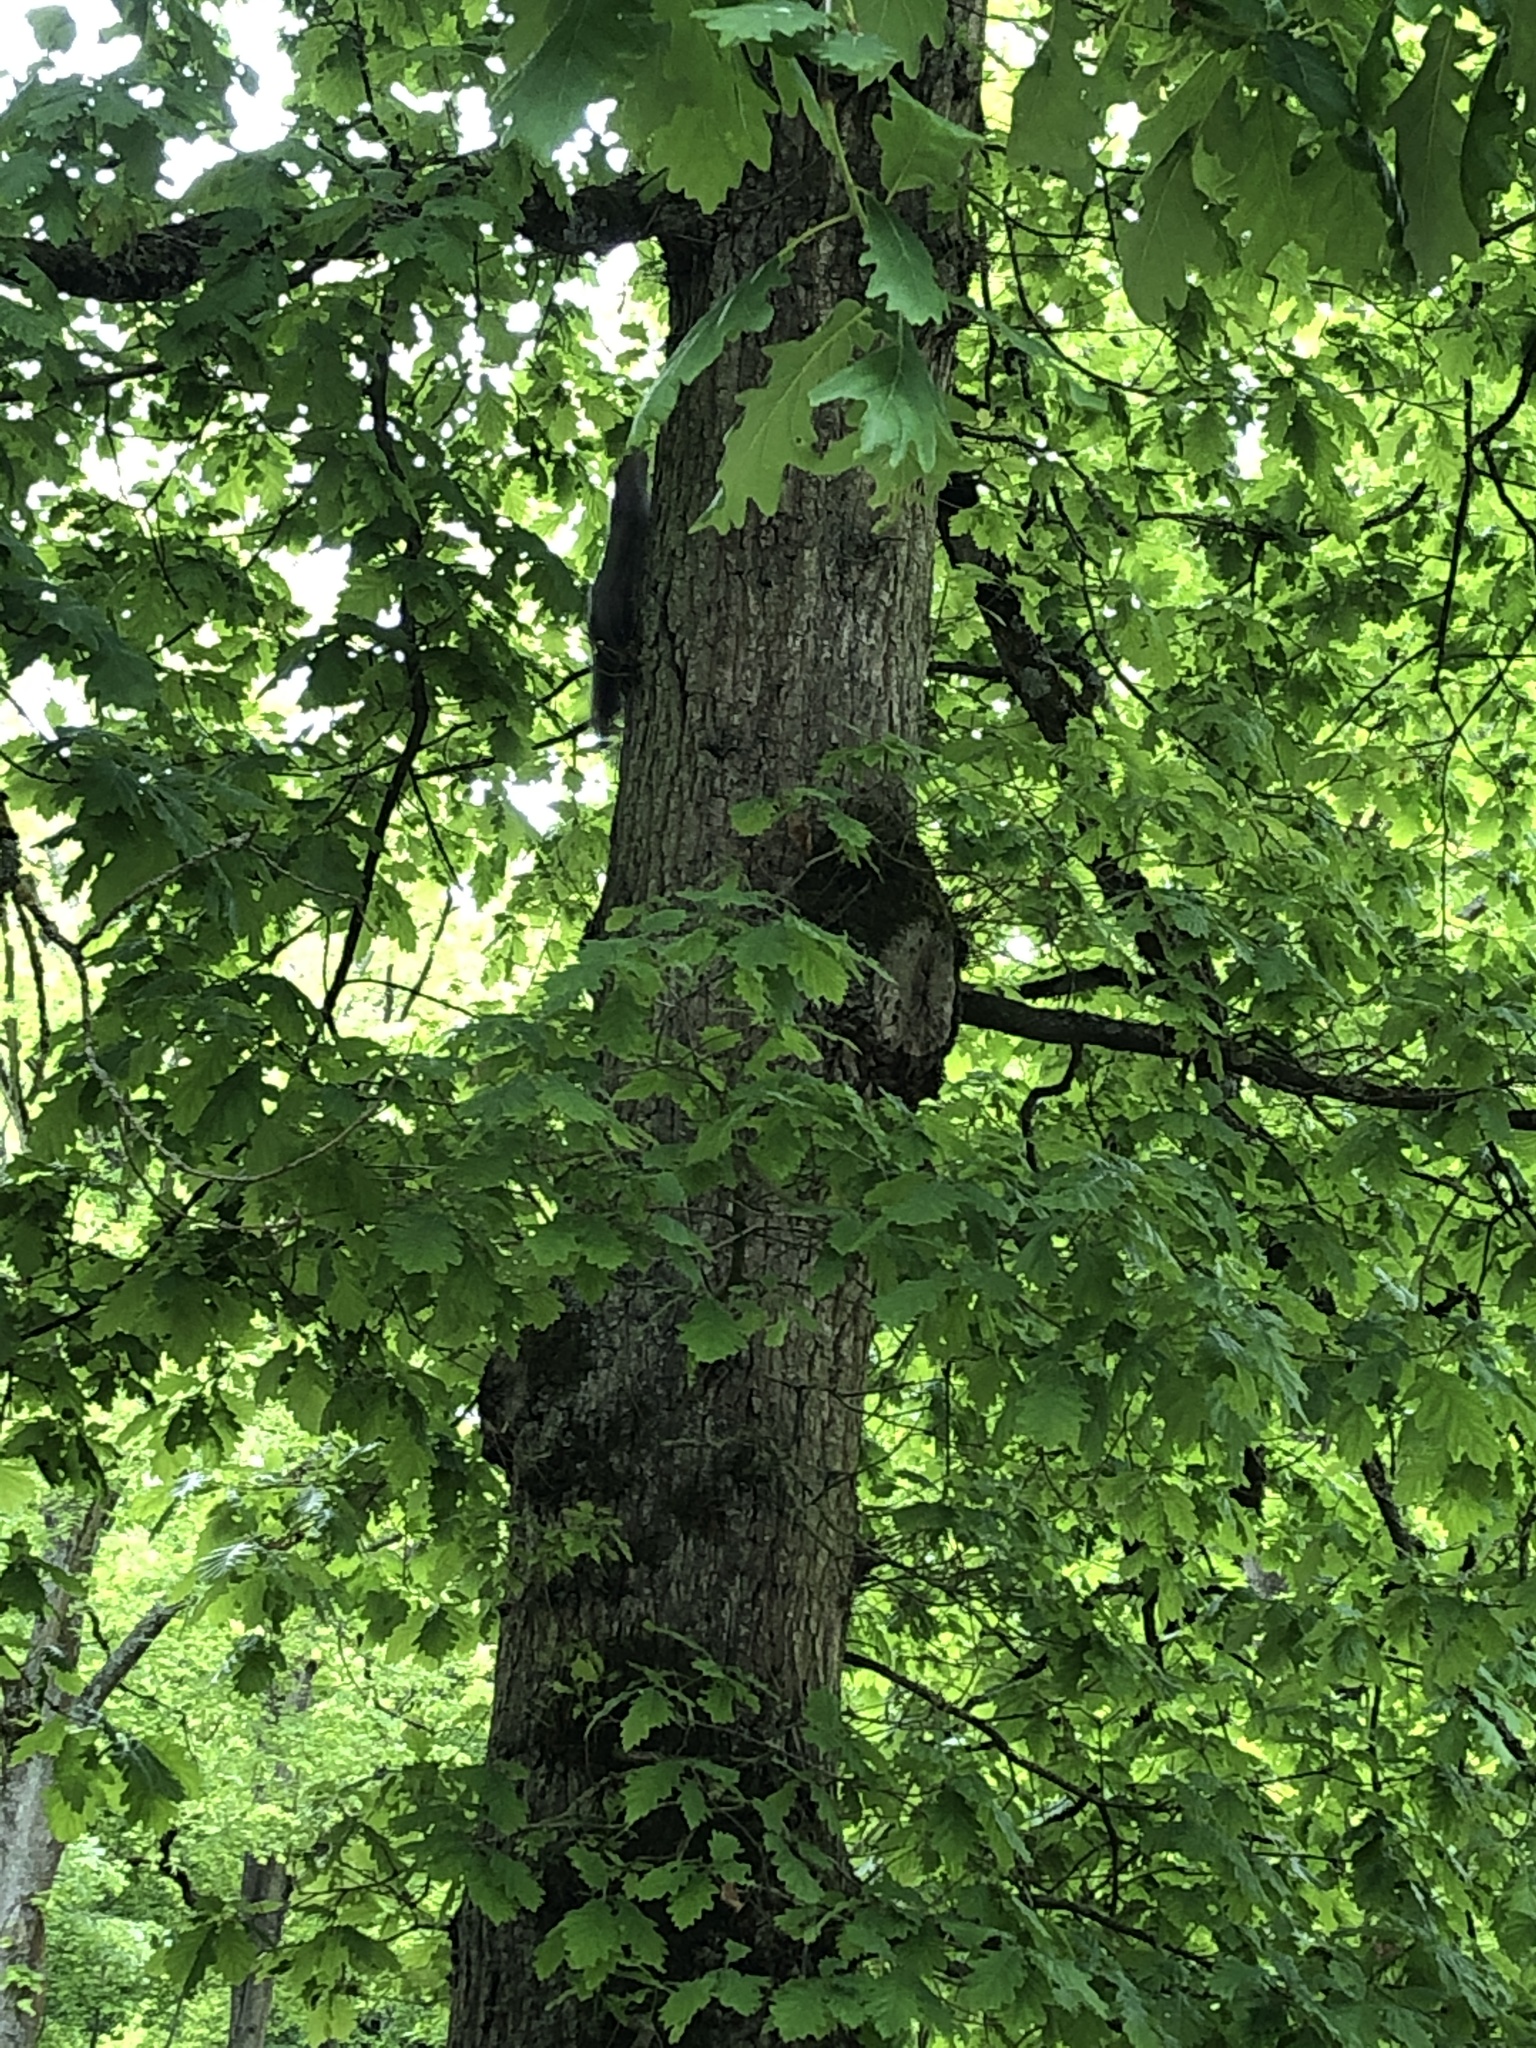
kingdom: Animalia
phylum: Chordata
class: Mammalia
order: Rodentia
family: Sciuridae
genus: Sciurus
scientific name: Sciurus carolinensis
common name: Eastern gray squirrel
